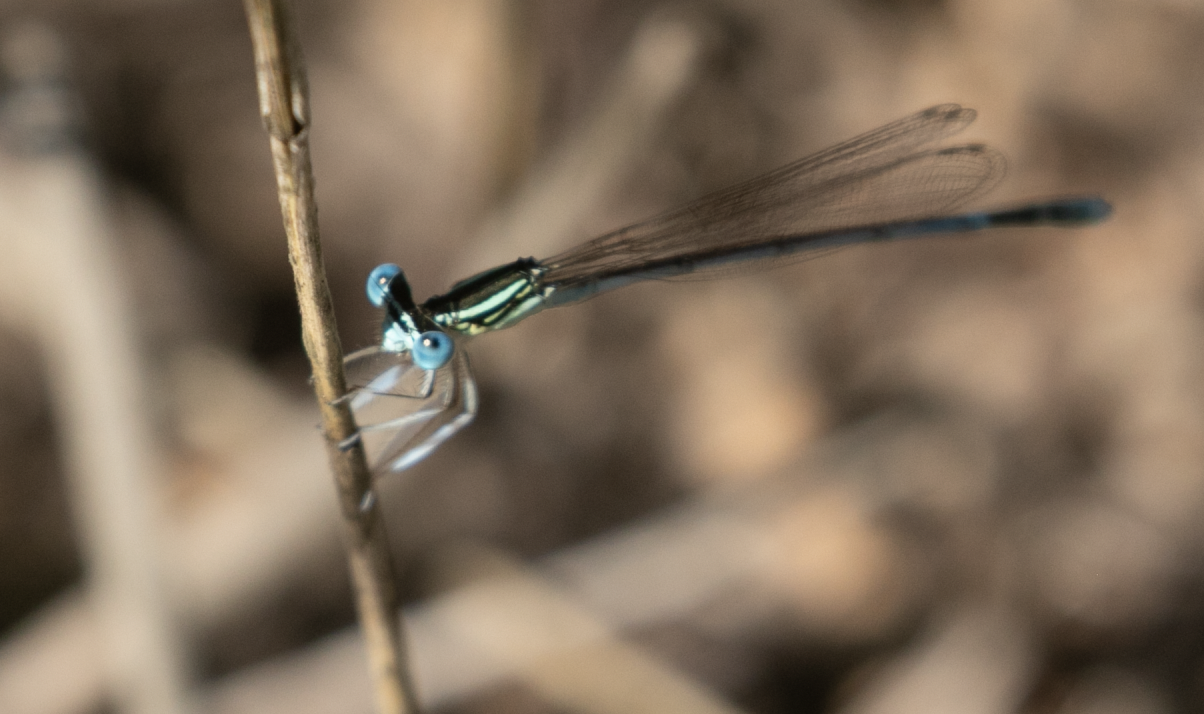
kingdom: Animalia
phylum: Arthropoda
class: Insecta
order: Odonata
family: Platycnemididae
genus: Platycnemis
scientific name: Platycnemis pennipes
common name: White-legged damselfly
